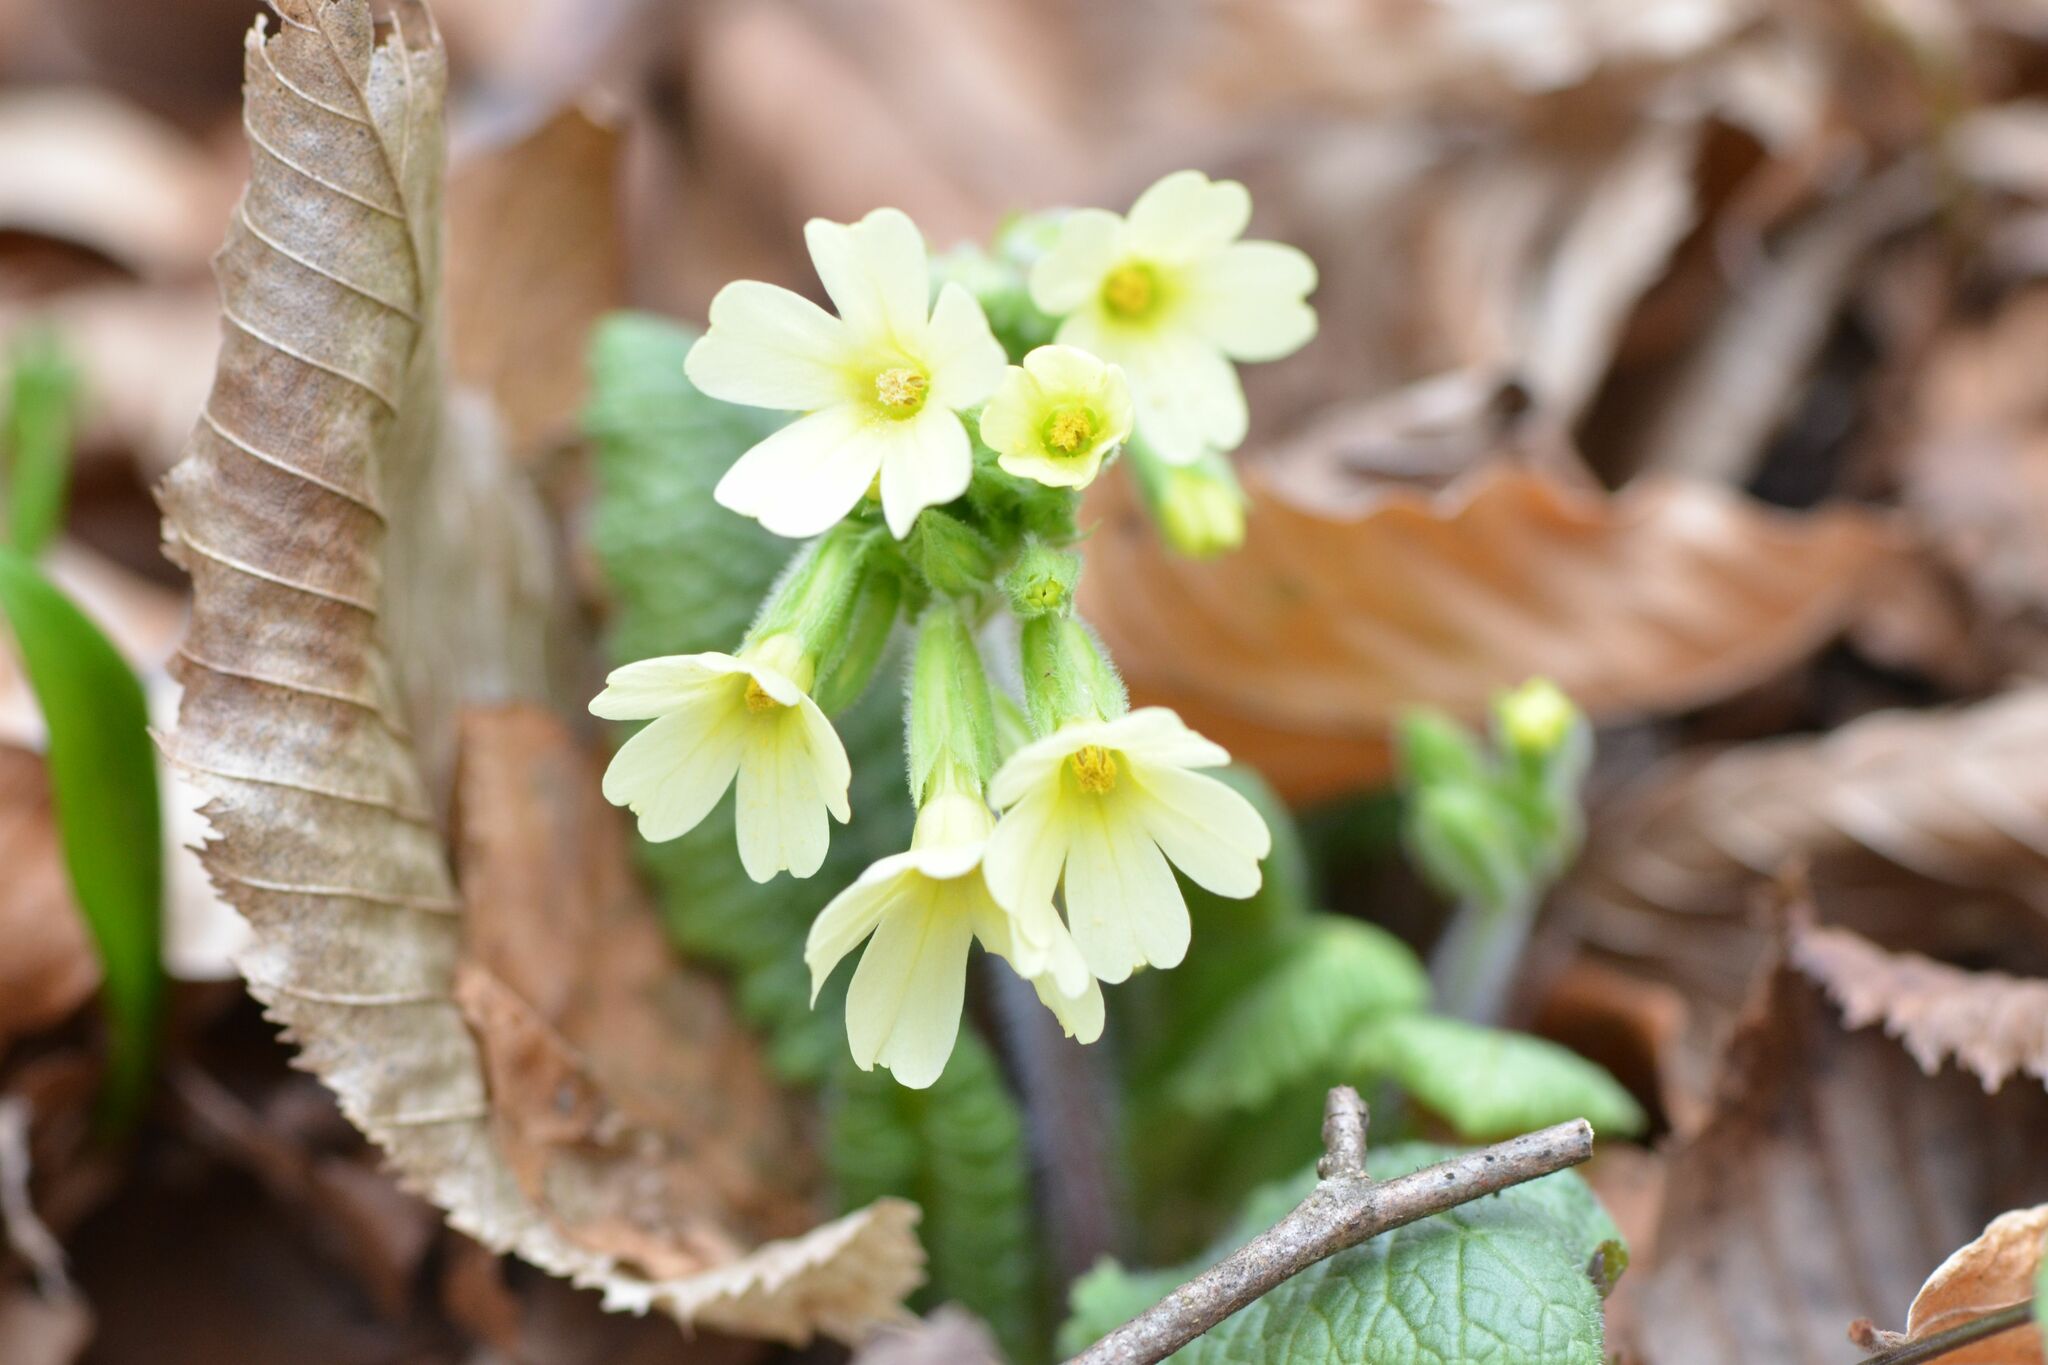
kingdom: Plantae
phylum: Tracheophyta
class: Magnoliopsida
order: Ericales
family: Primulaceae
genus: Primula
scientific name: Primula elatior
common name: Oxlip
